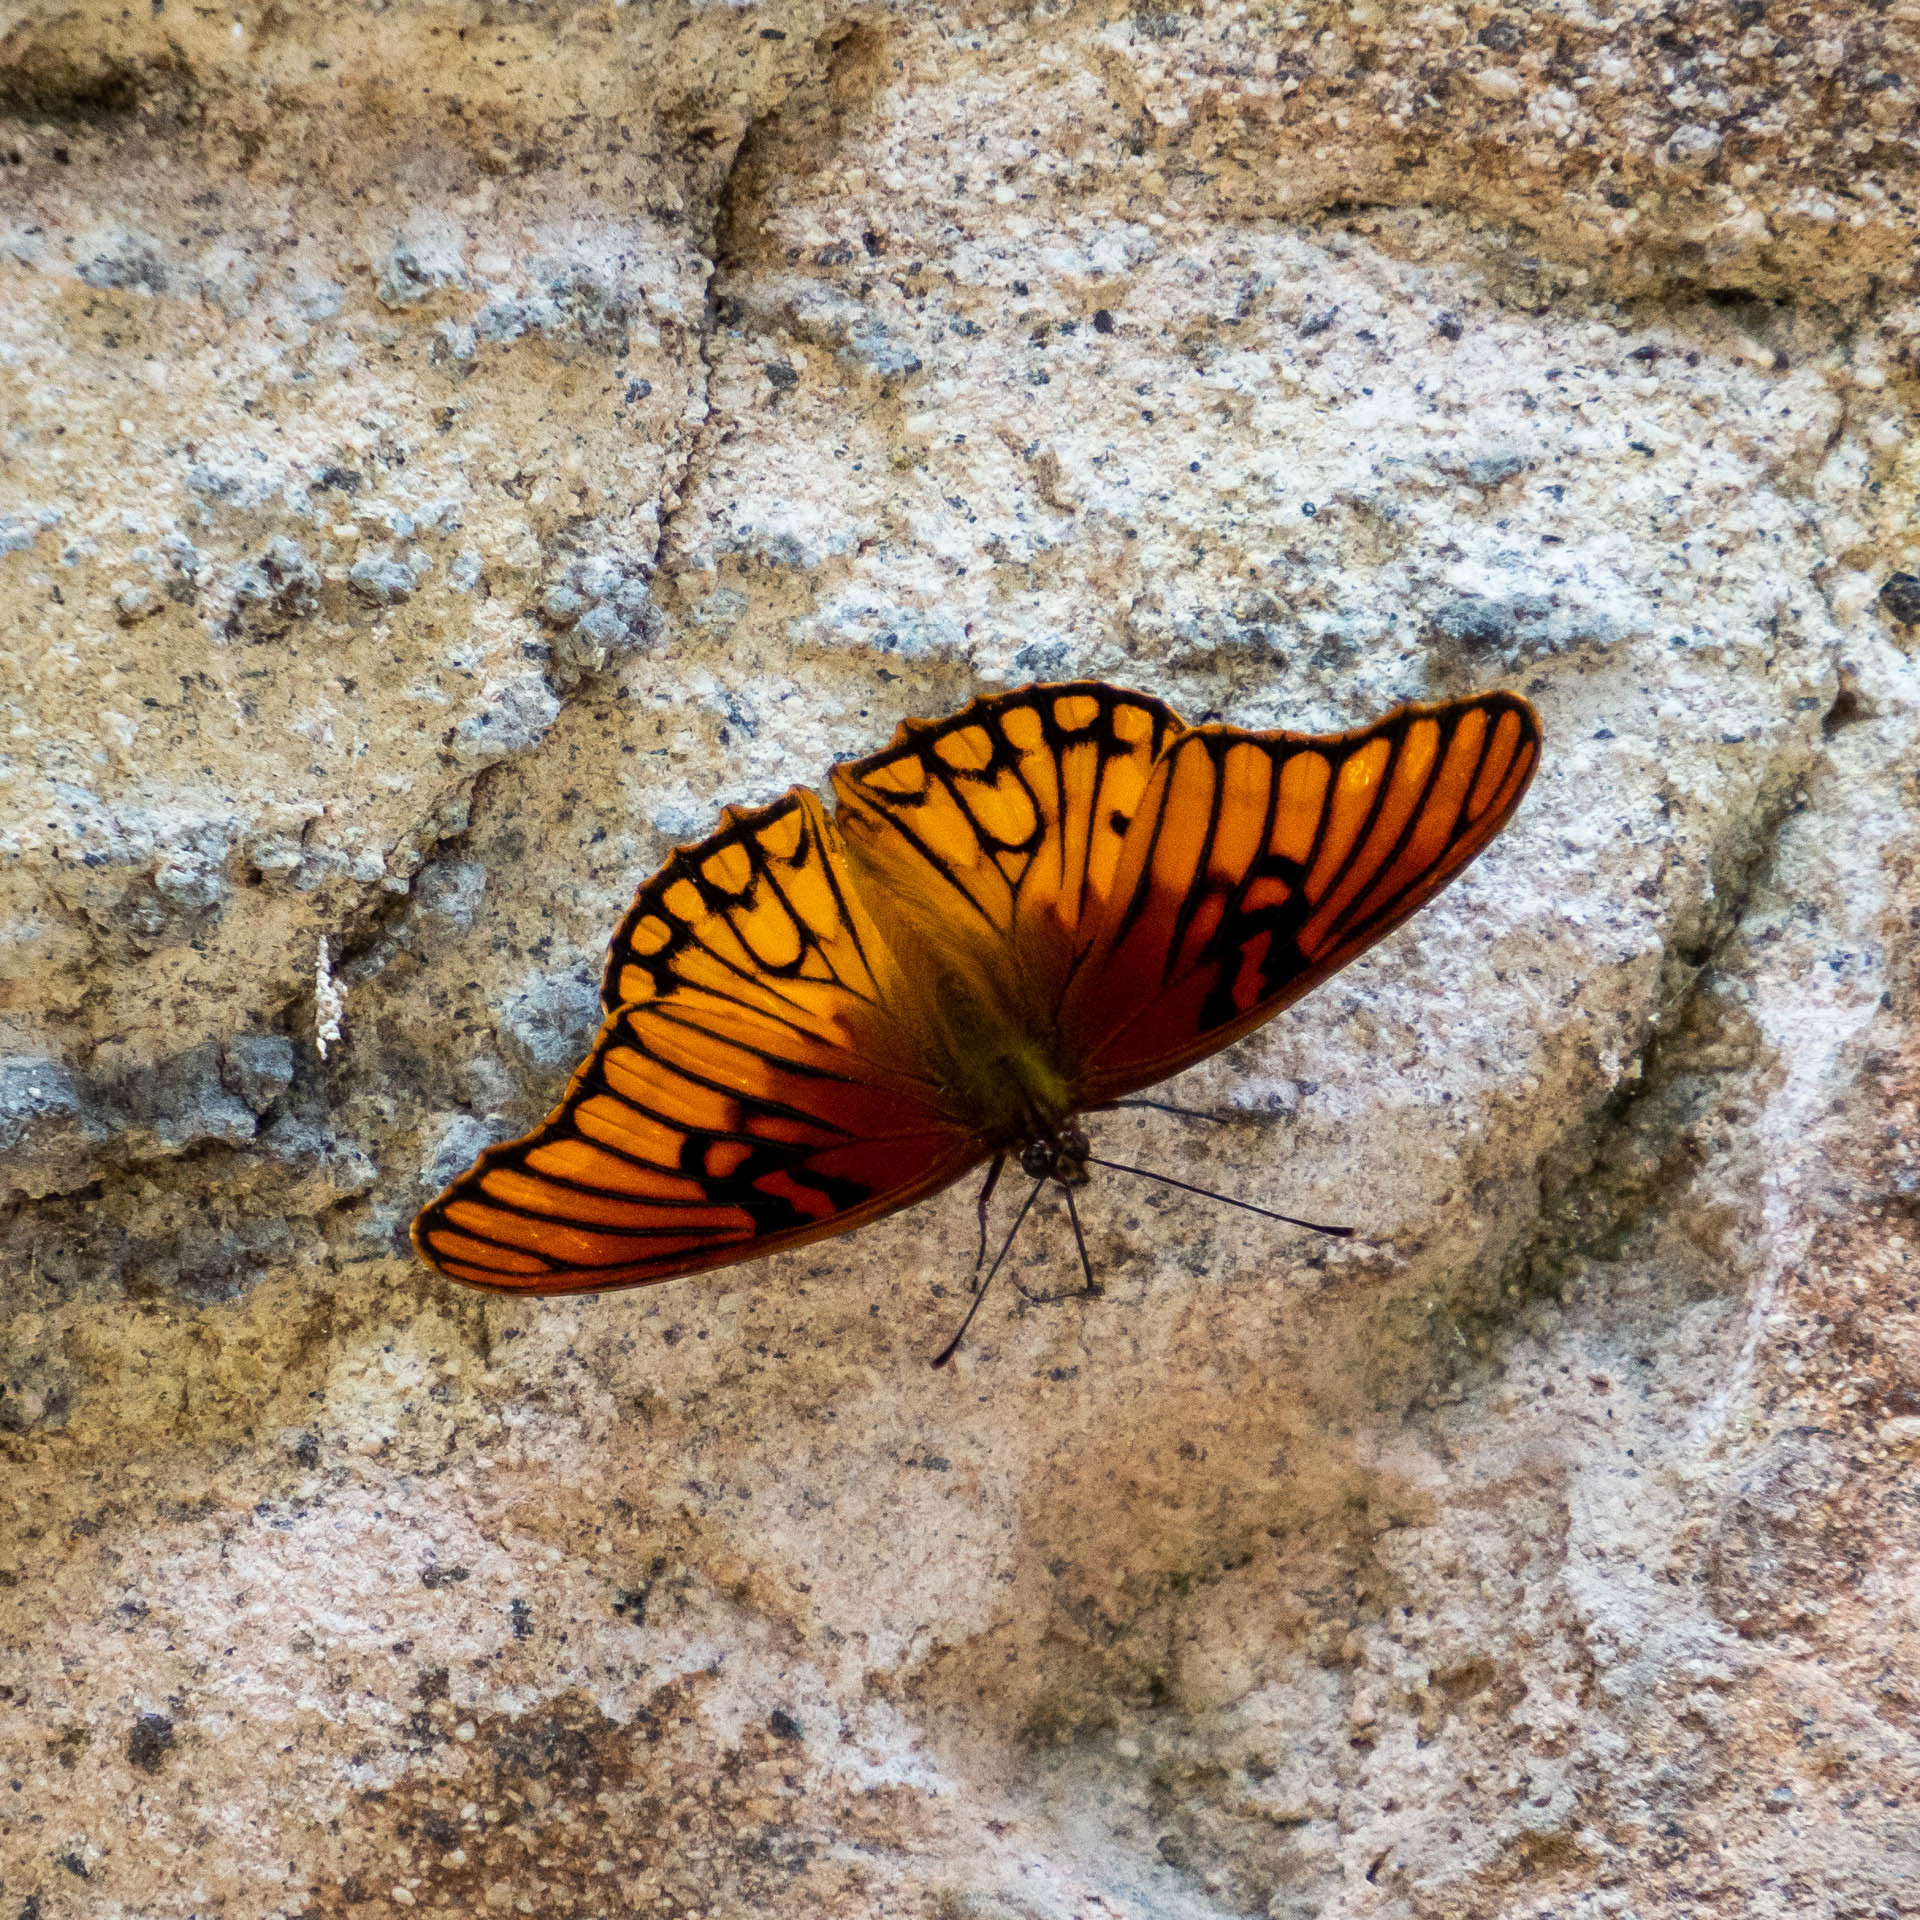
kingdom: Animalia
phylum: Arthropoda
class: Insecta
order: Lepidoptera
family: Nymphalidae
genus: Dione
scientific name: Dione moneta
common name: Mexican silverspot
